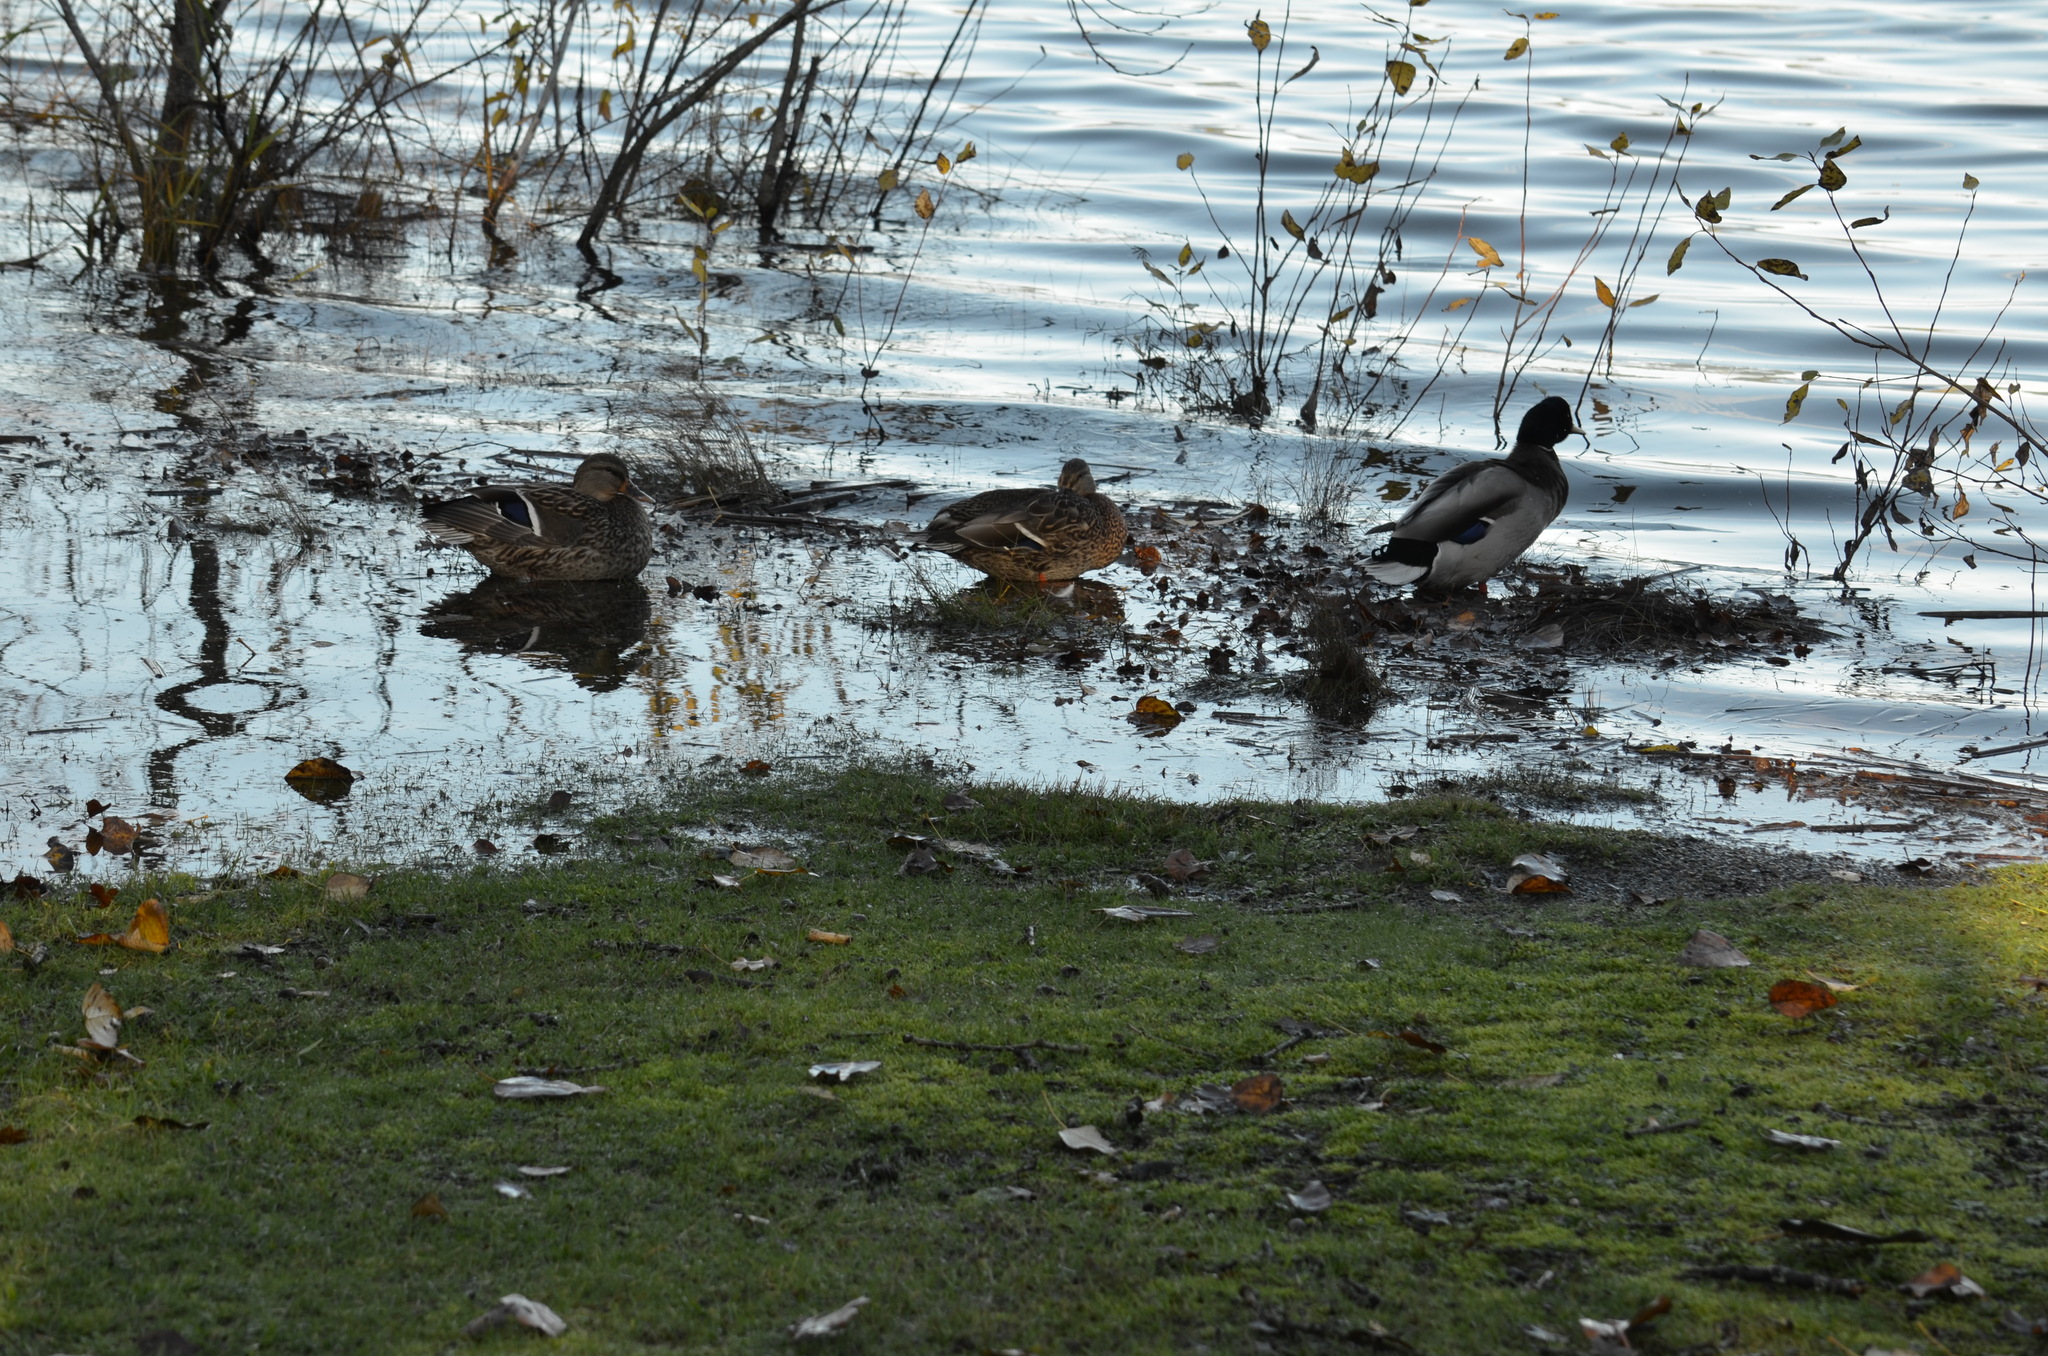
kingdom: Animalia
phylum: Chordata
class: Aves
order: Anseriformes
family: Anatidae
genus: Anas
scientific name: Anas platyrhynchos
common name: Mallard
